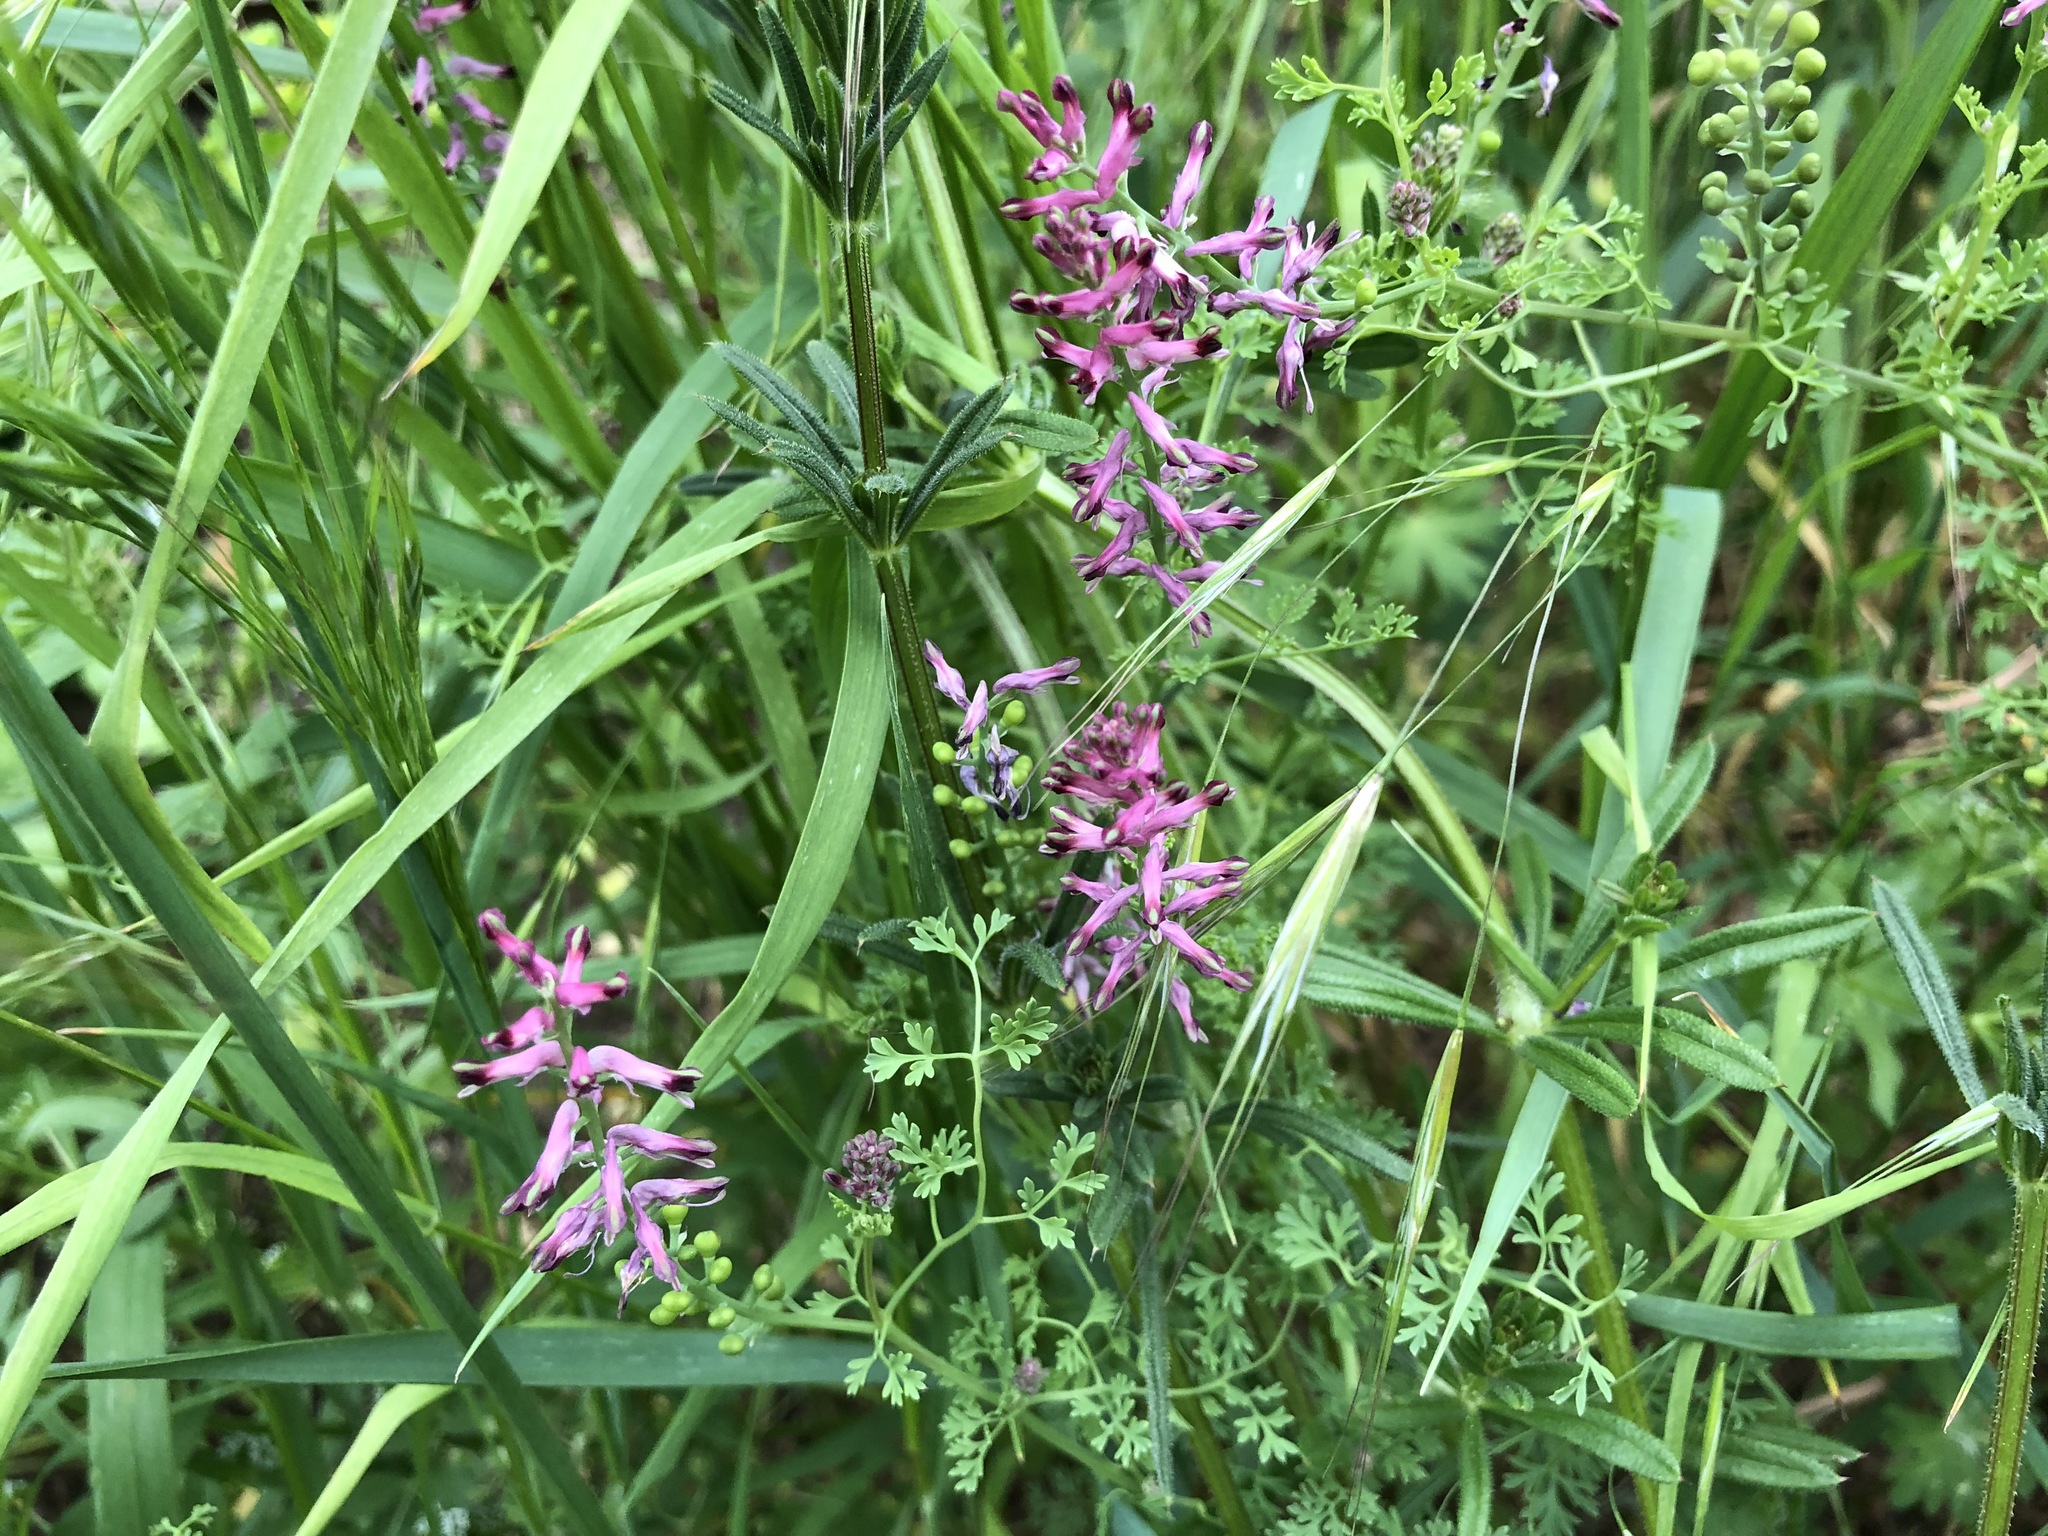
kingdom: Plantae
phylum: Tracheophyta
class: Magnoliopsida
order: Ranunculales
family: Papaveraceae
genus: Fumaria
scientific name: Fumaria officinalis
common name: Common fumitory
